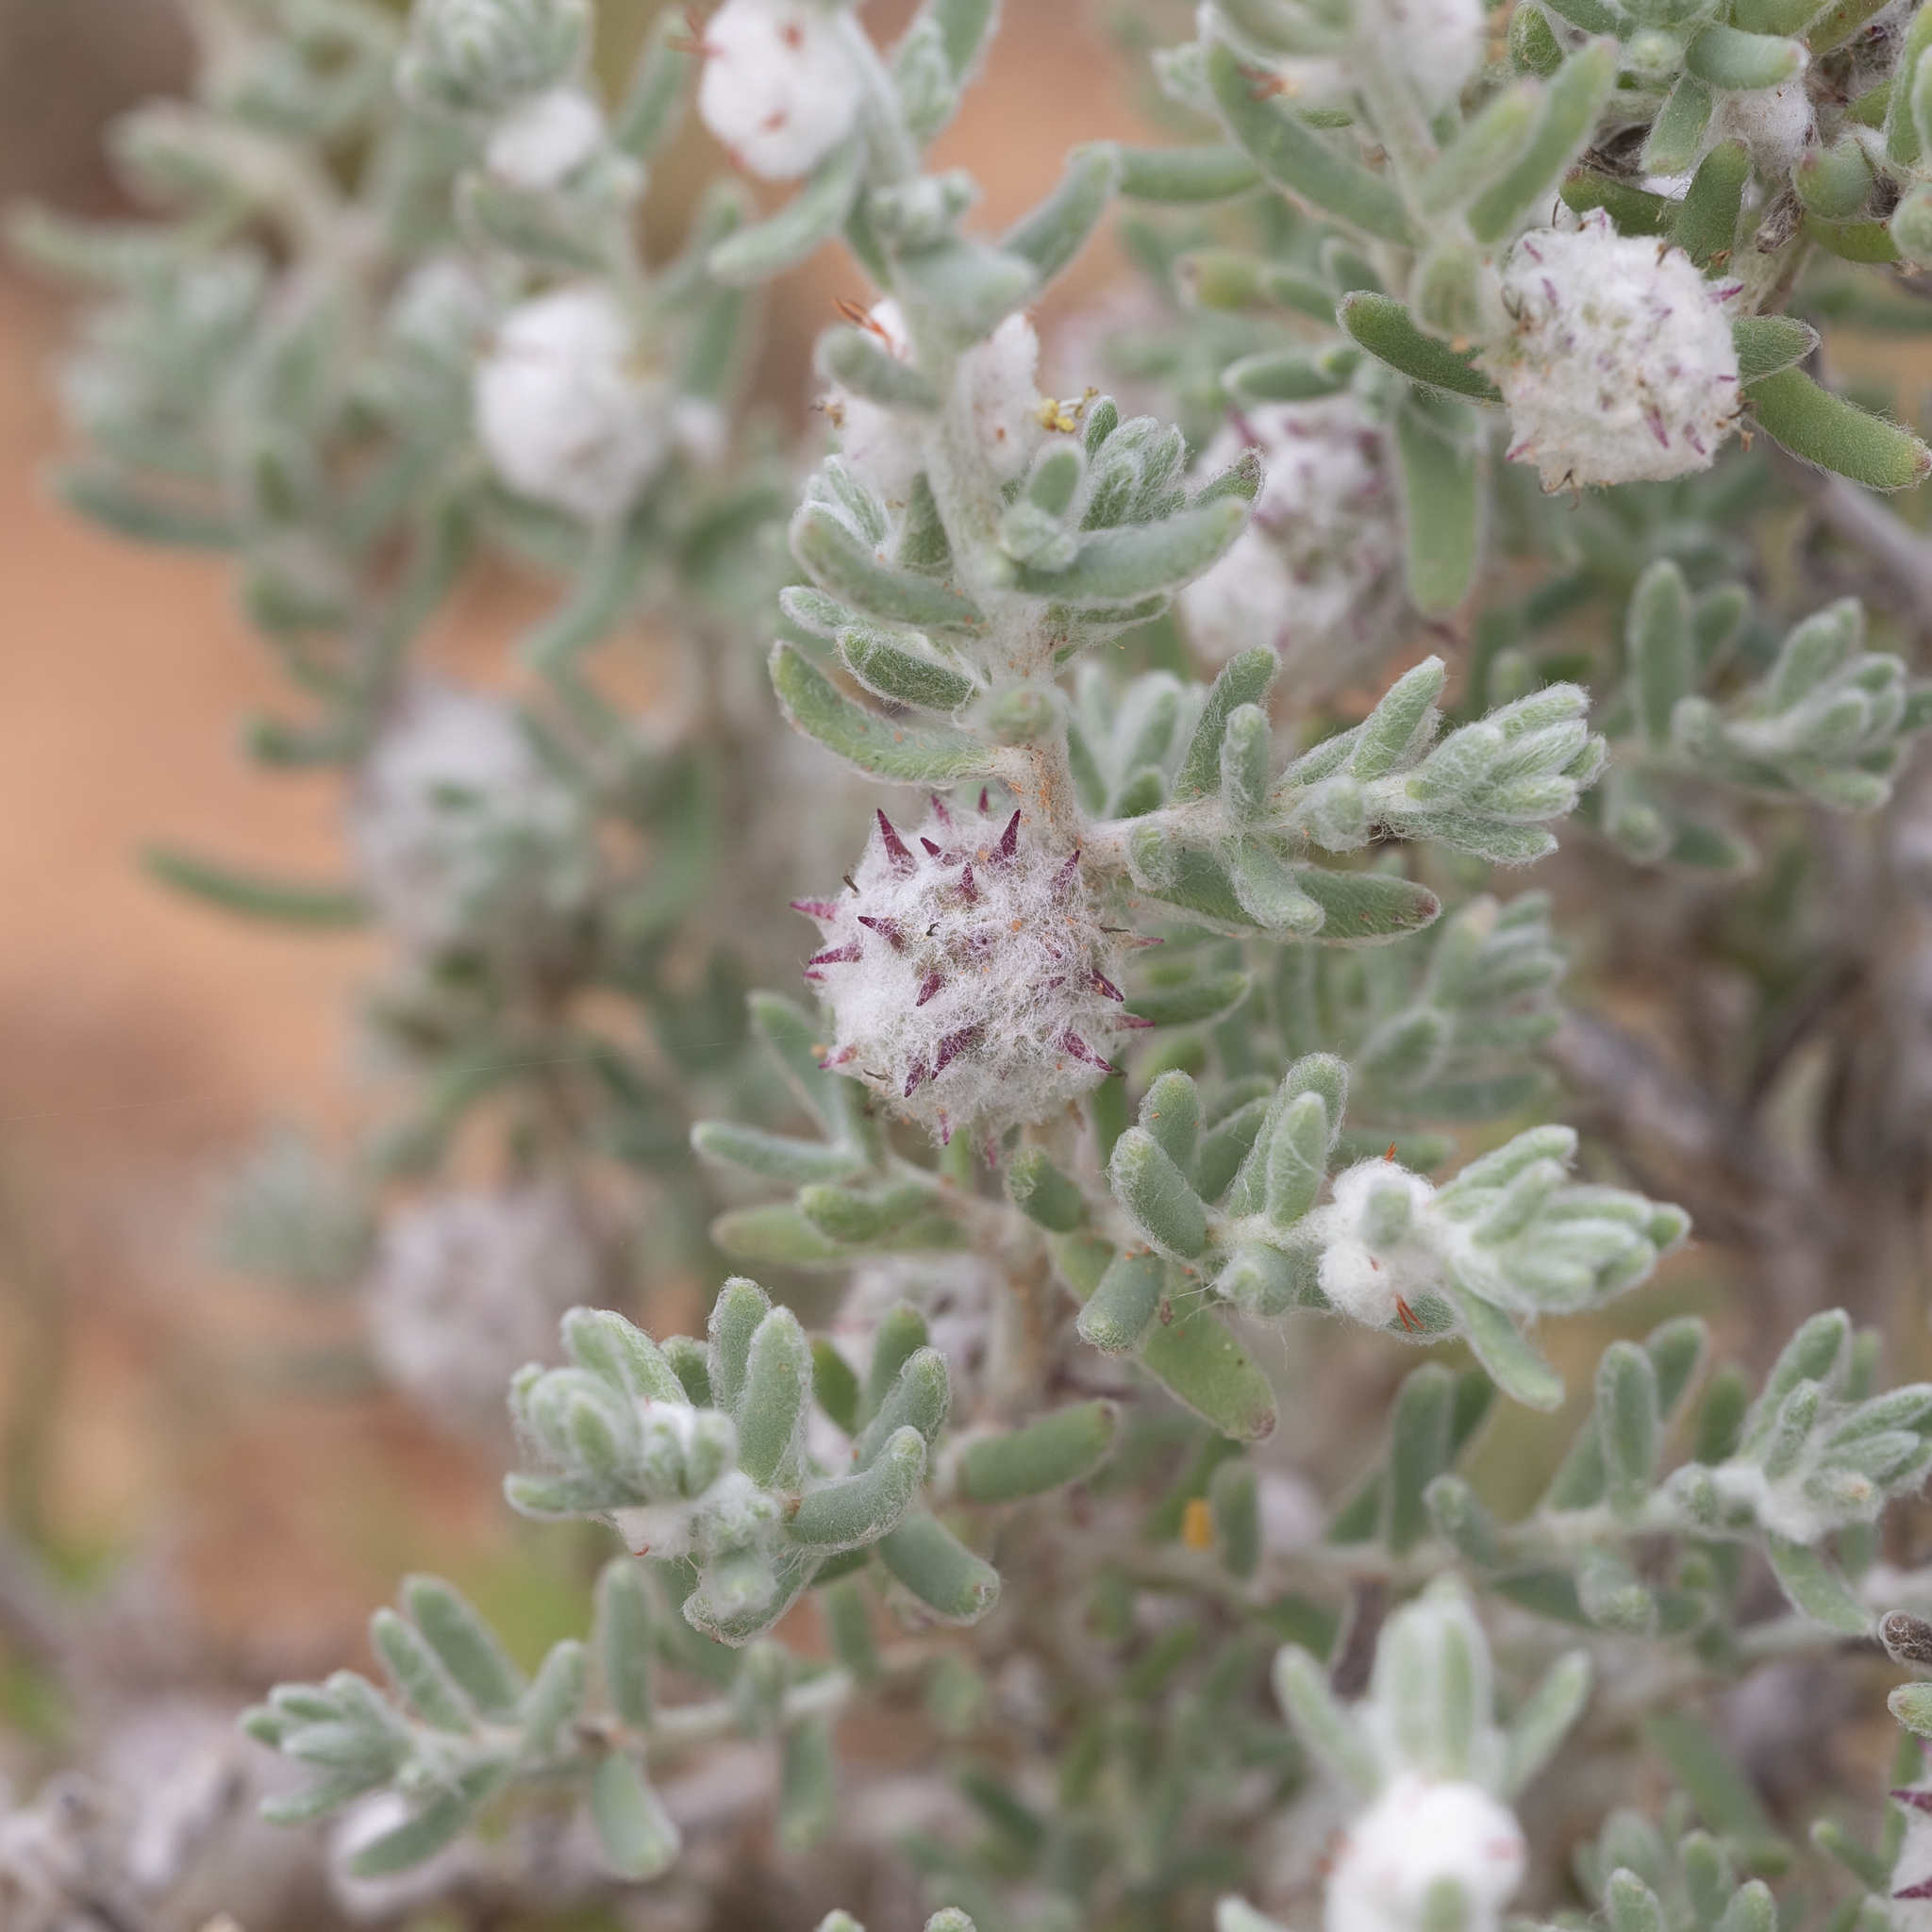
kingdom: Plantae
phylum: Tracheophyta
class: Magnoliopsida
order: Caryophyllales
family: Amaranthaceae
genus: Dissocarpus
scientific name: Dissocarpus paradoxus
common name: Bur-saltbush
